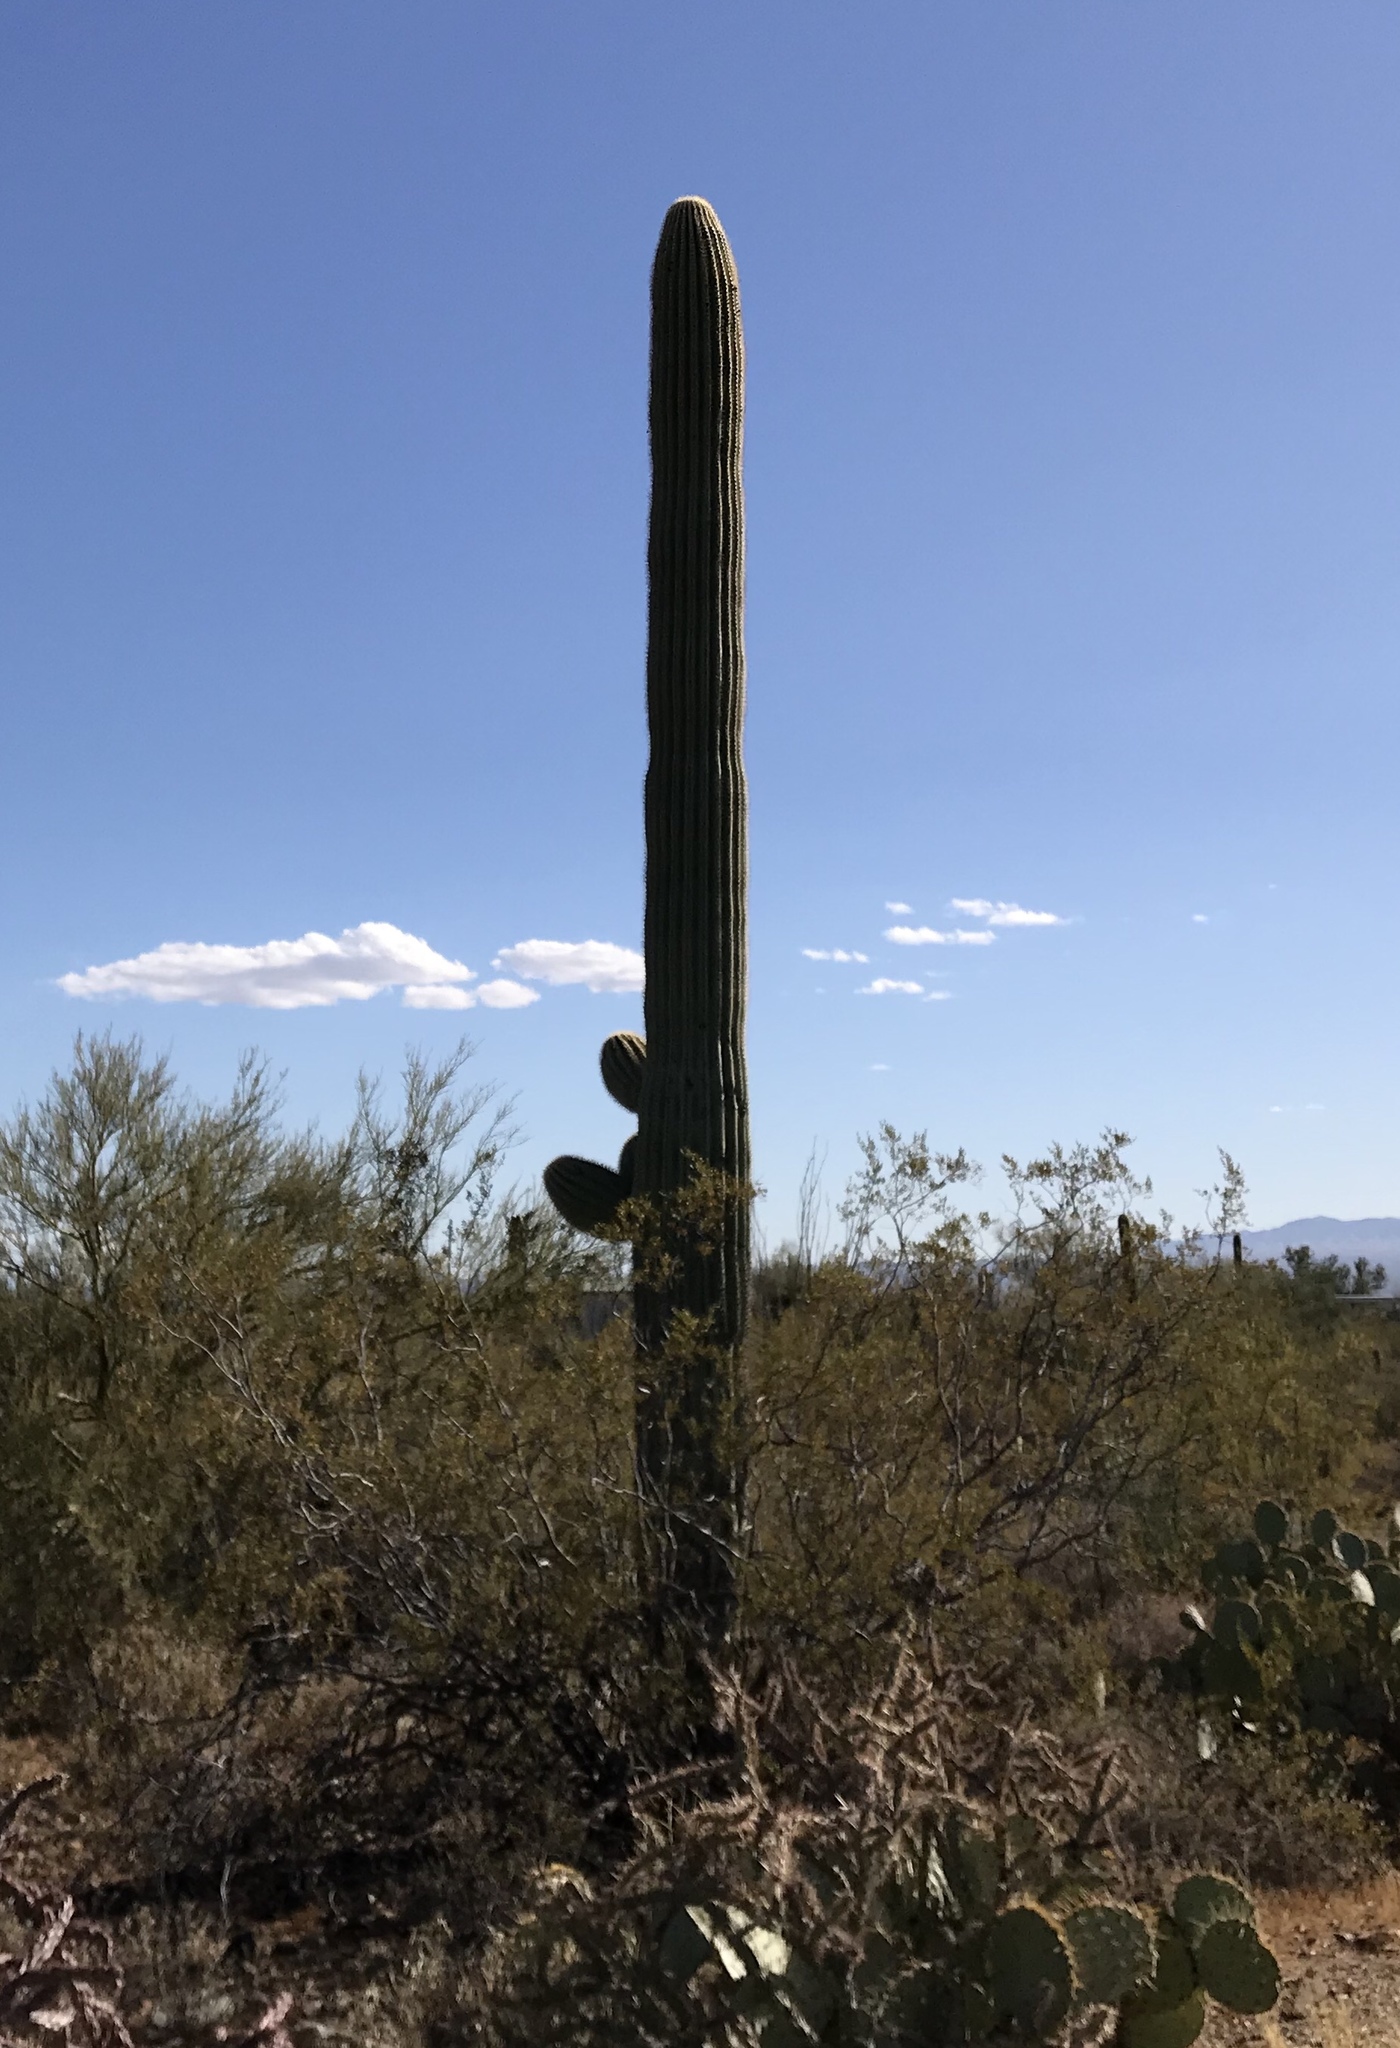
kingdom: Plantae
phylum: Tracheophyta
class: Magnoliopsida
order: Caryophyllales
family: Cactaceae
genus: Carnegiea
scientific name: Carnegiea gigantea
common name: Saguaro
